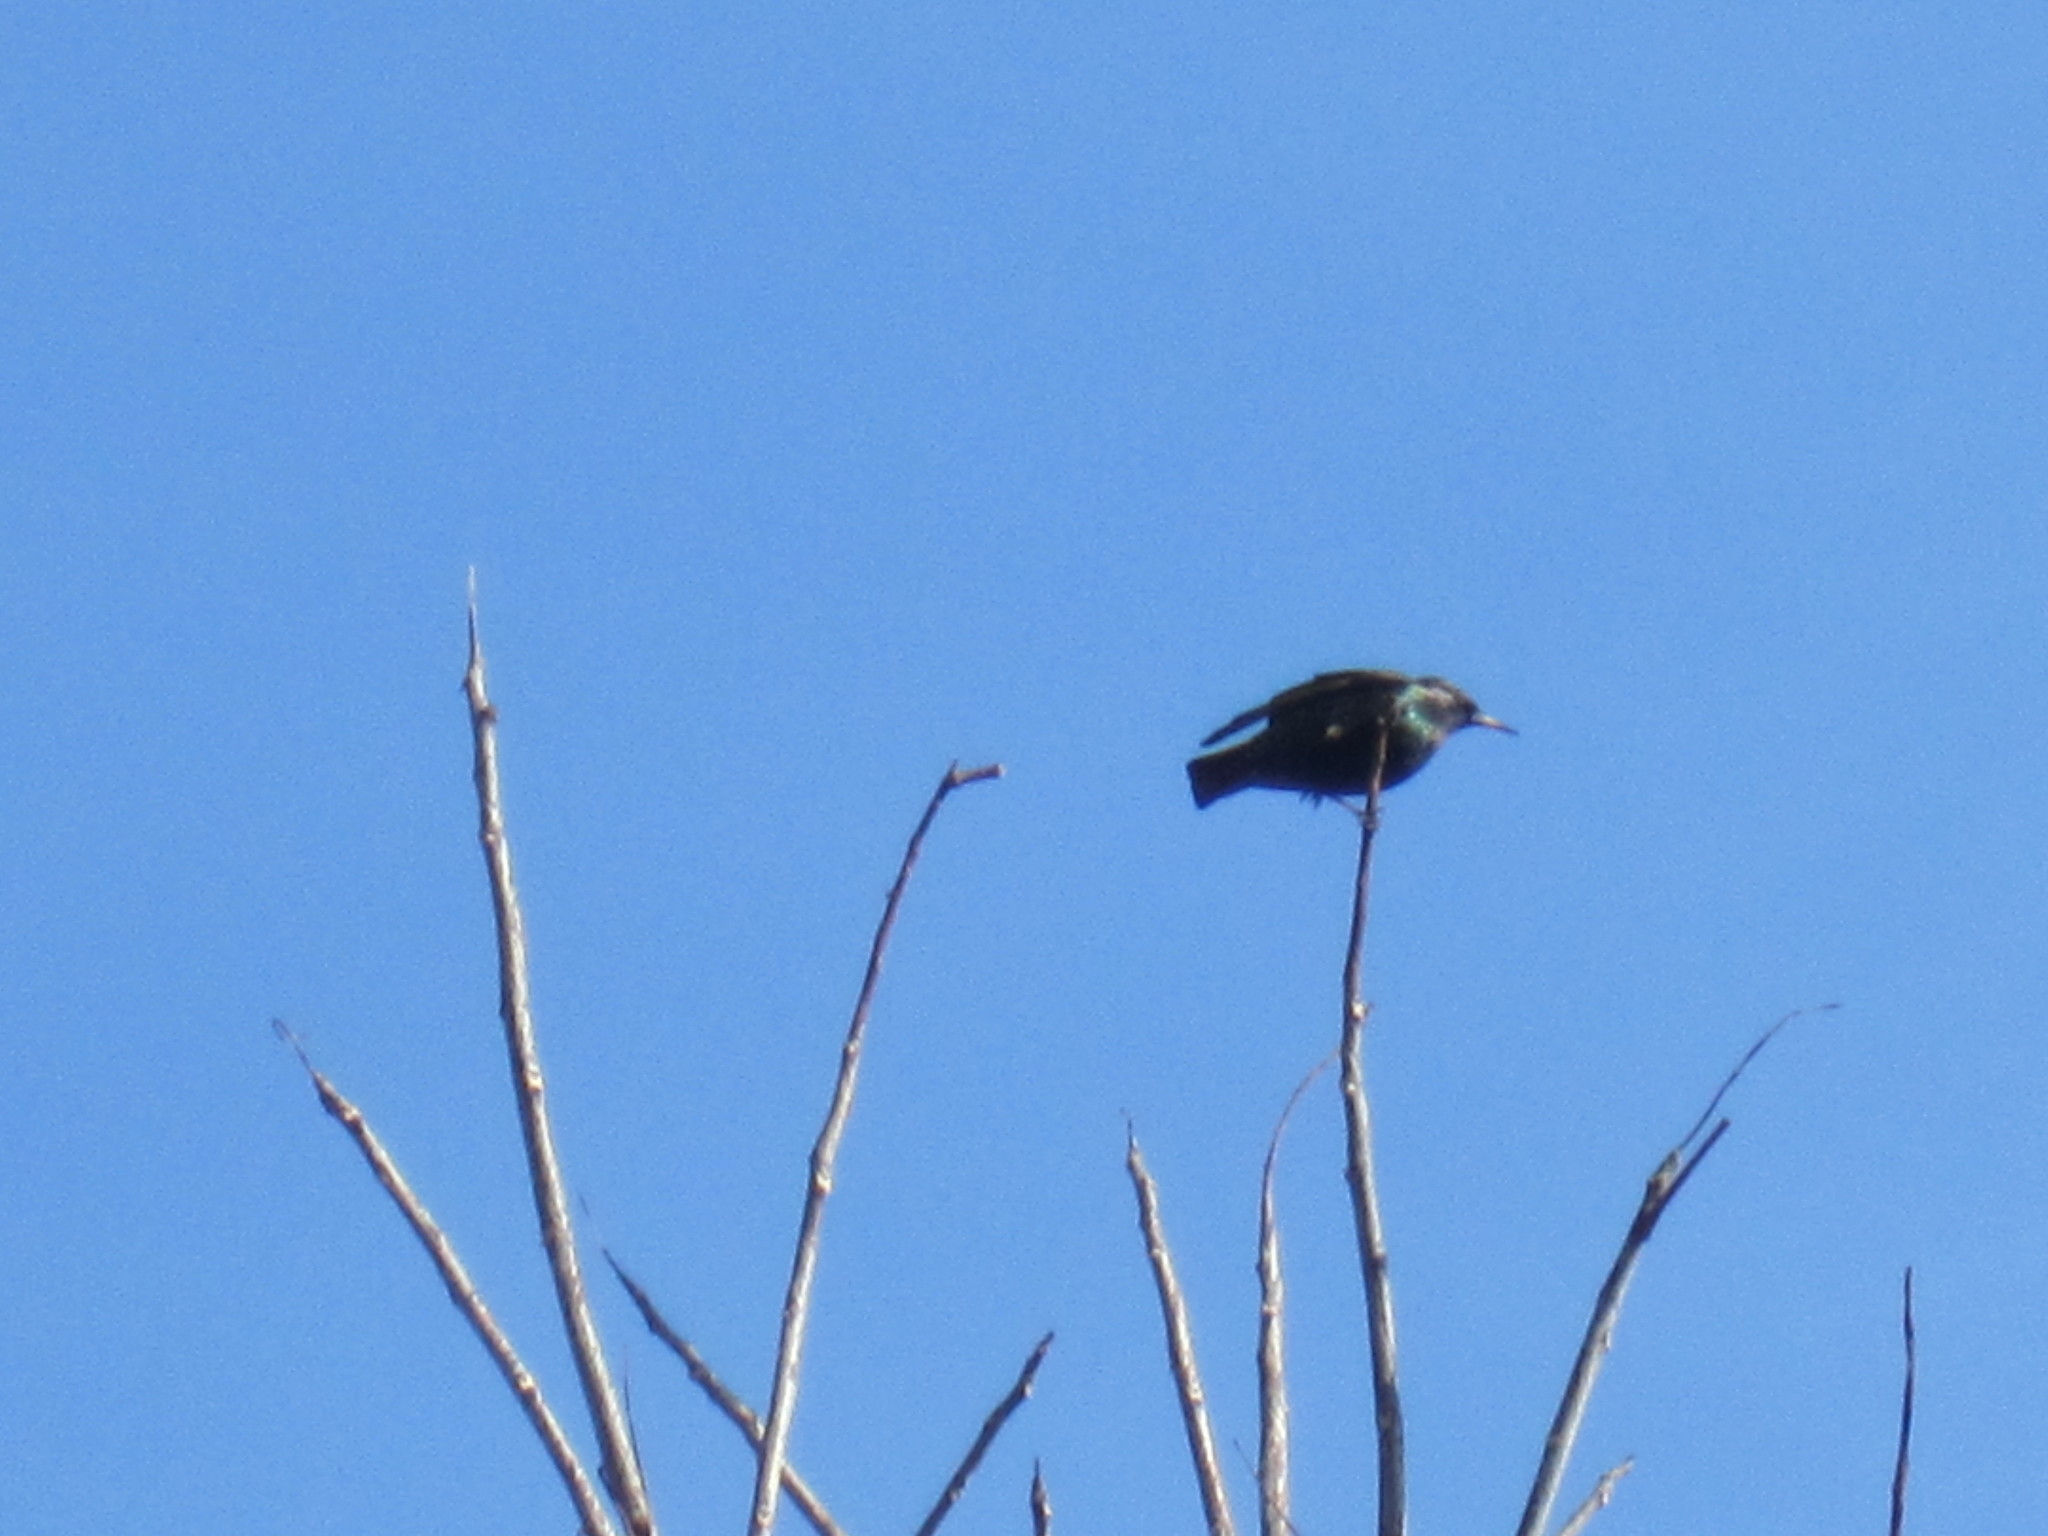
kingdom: Animalia
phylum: Chordata
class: Aves
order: Passeriformes
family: Sturnidae
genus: Sturnus
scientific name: Sturnus vulgaris
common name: Common starling
